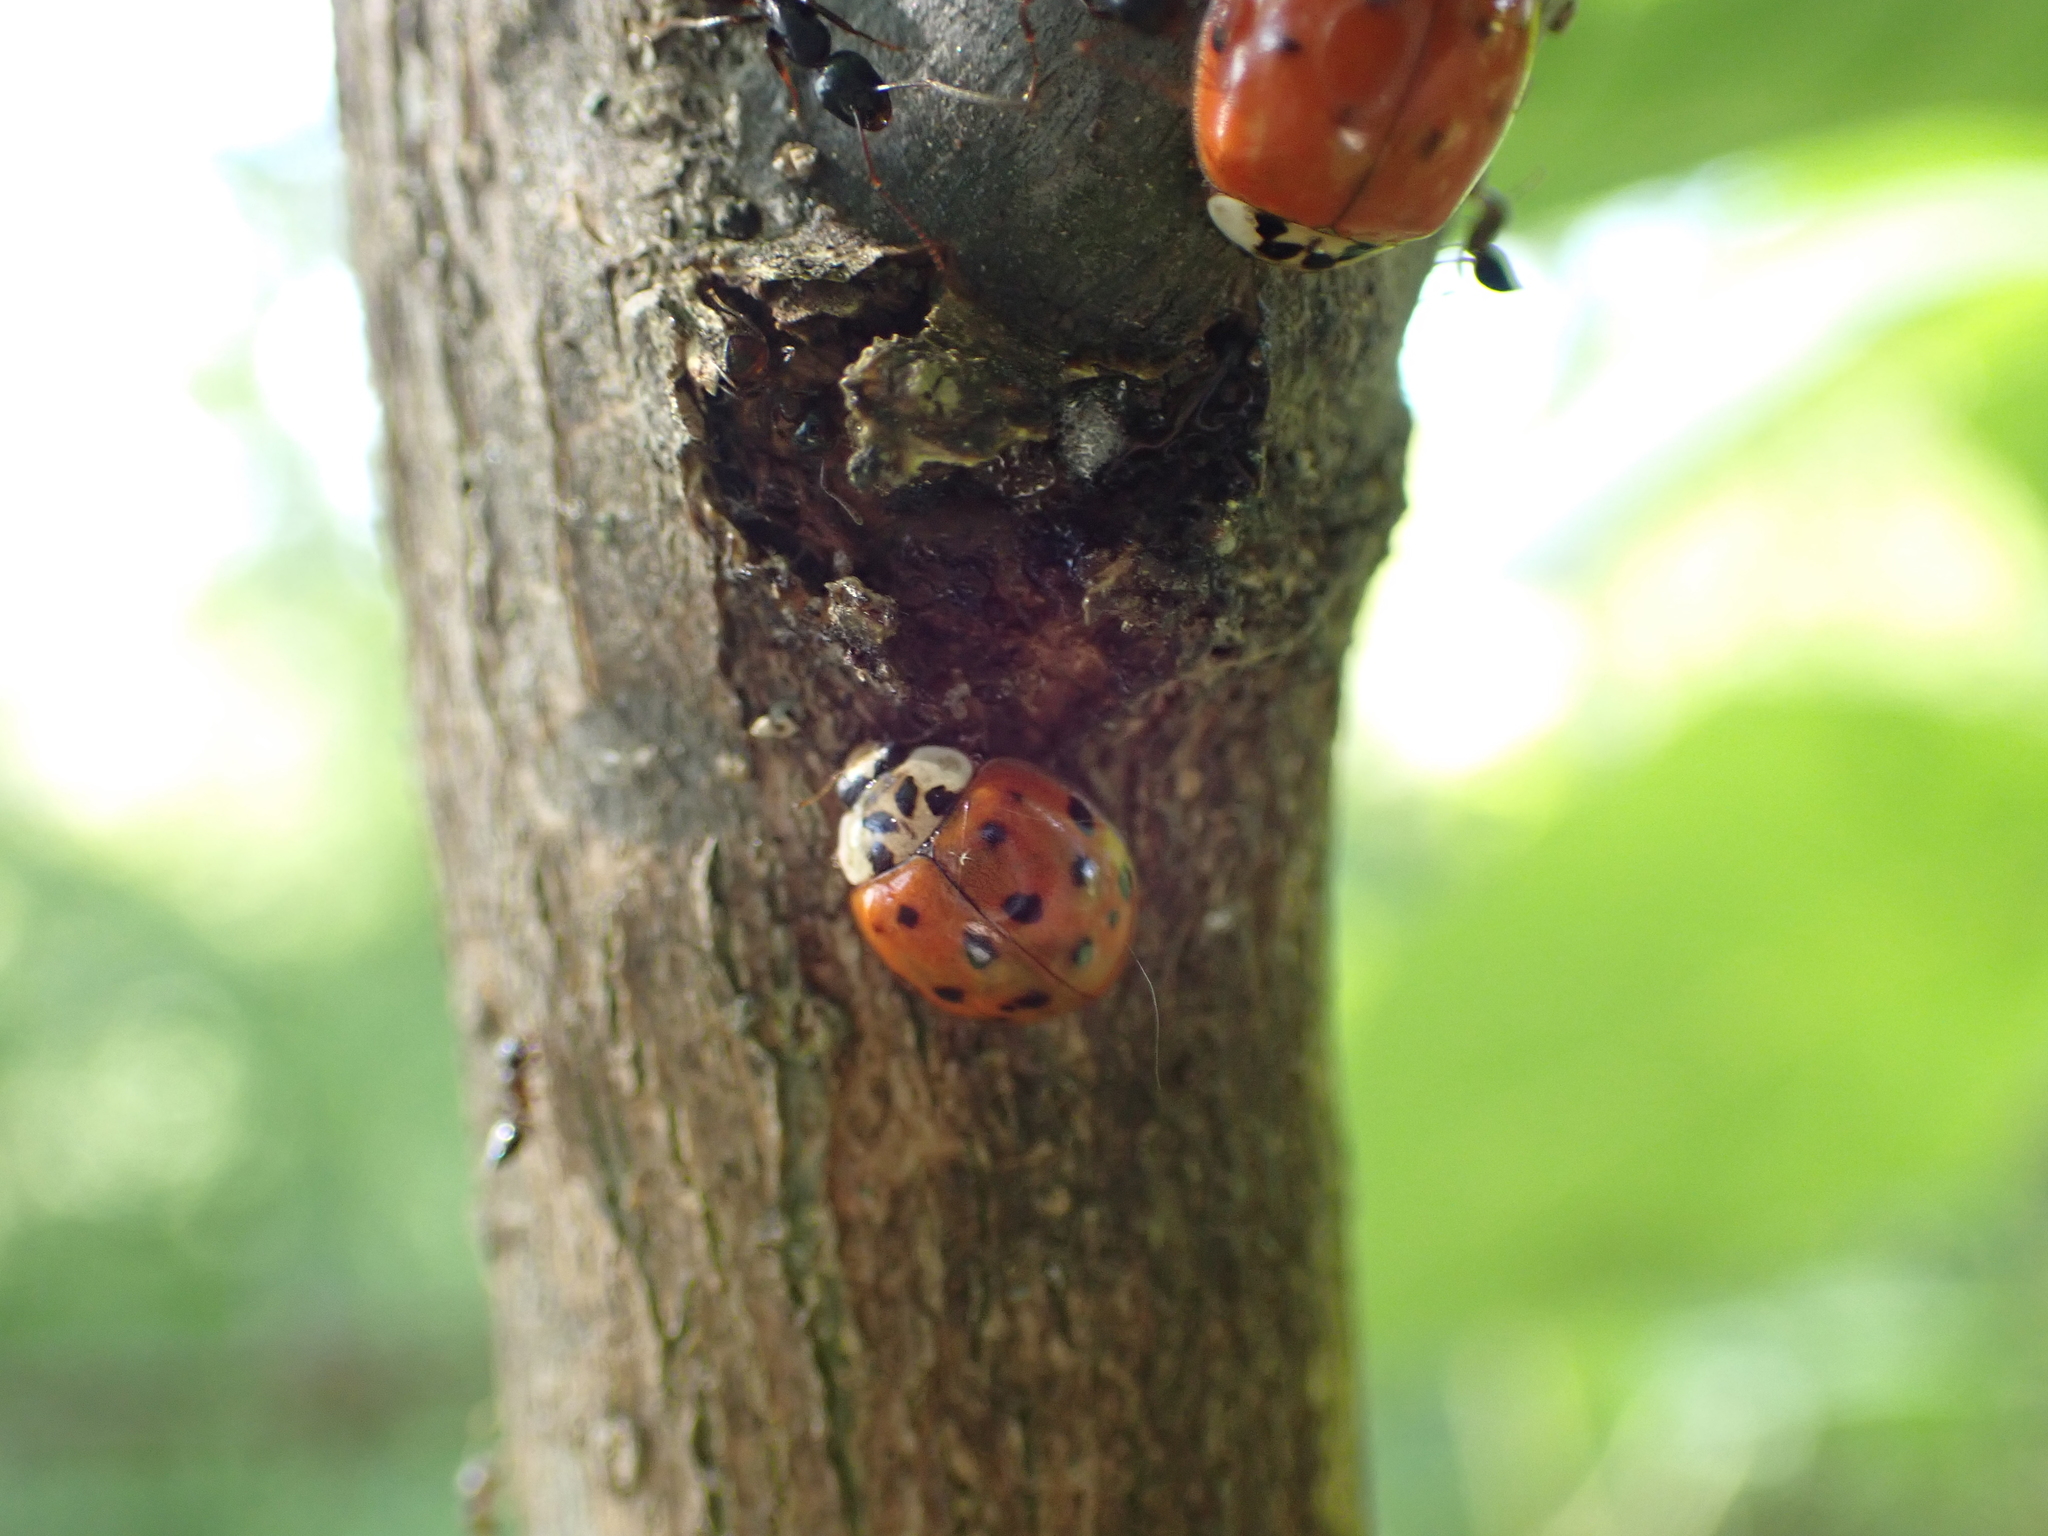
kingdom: Animalia
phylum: Arthropoda
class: Insecta
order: Coleoptera
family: Coccinellidae
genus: Harmonia
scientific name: Harmonia axyridis
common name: Harlequin ladybird
